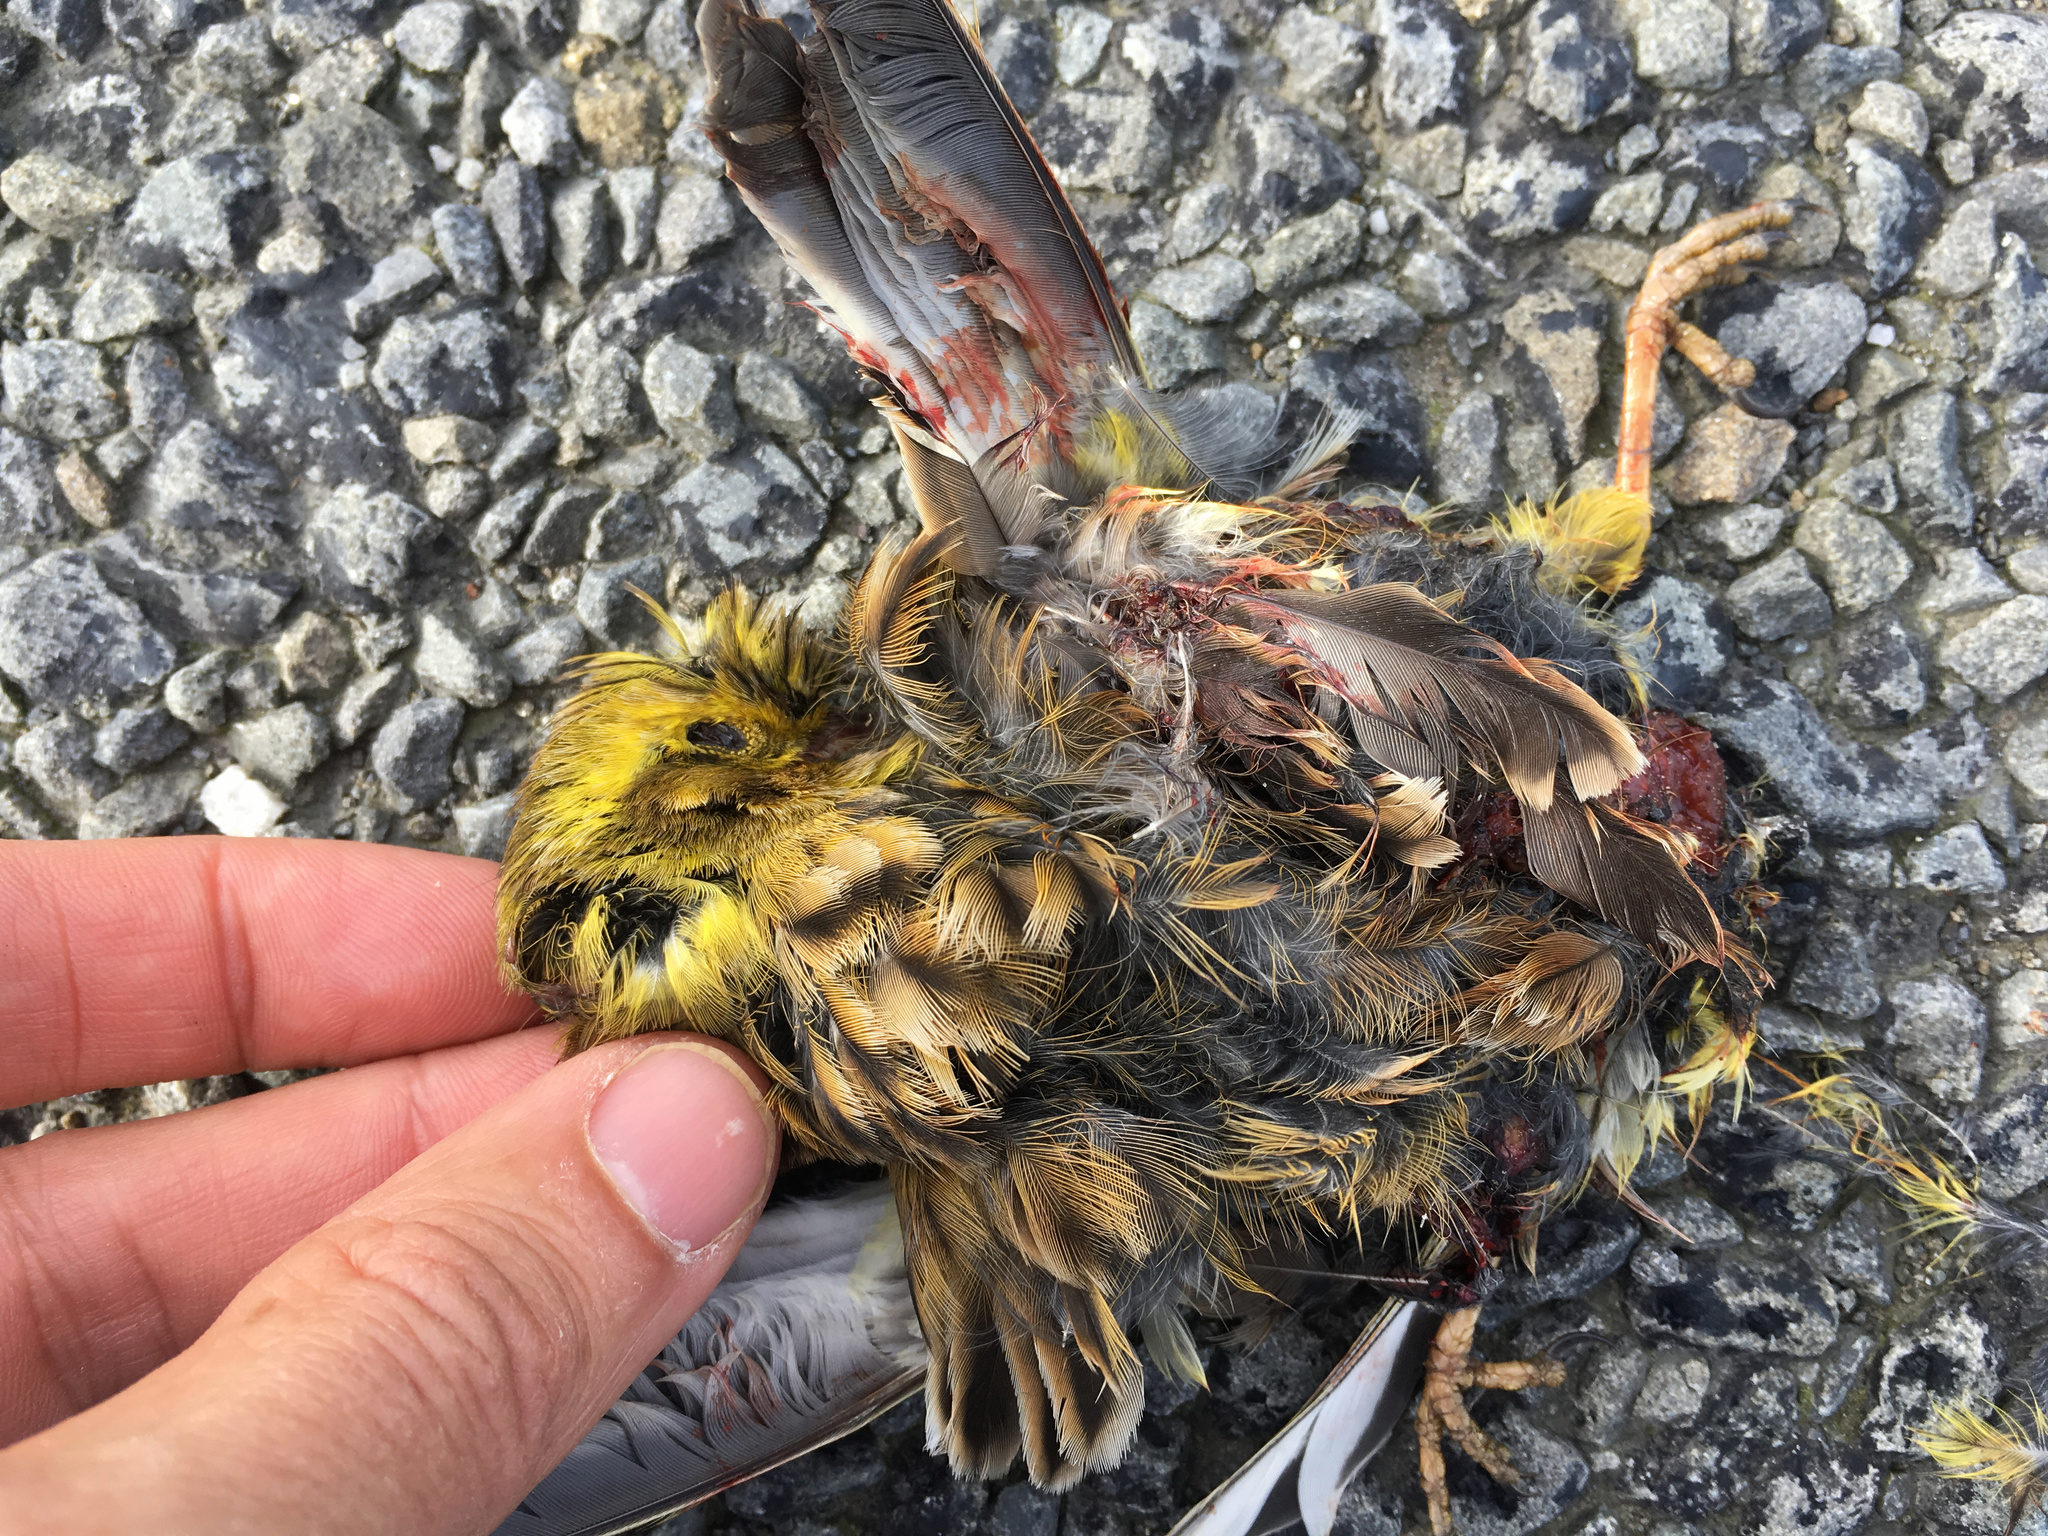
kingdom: Animalia
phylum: Chordata
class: Aves
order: Passeriformes
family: Emberizidae
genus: Emberiza
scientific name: Emberiza citrinella
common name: Yellowhammer
